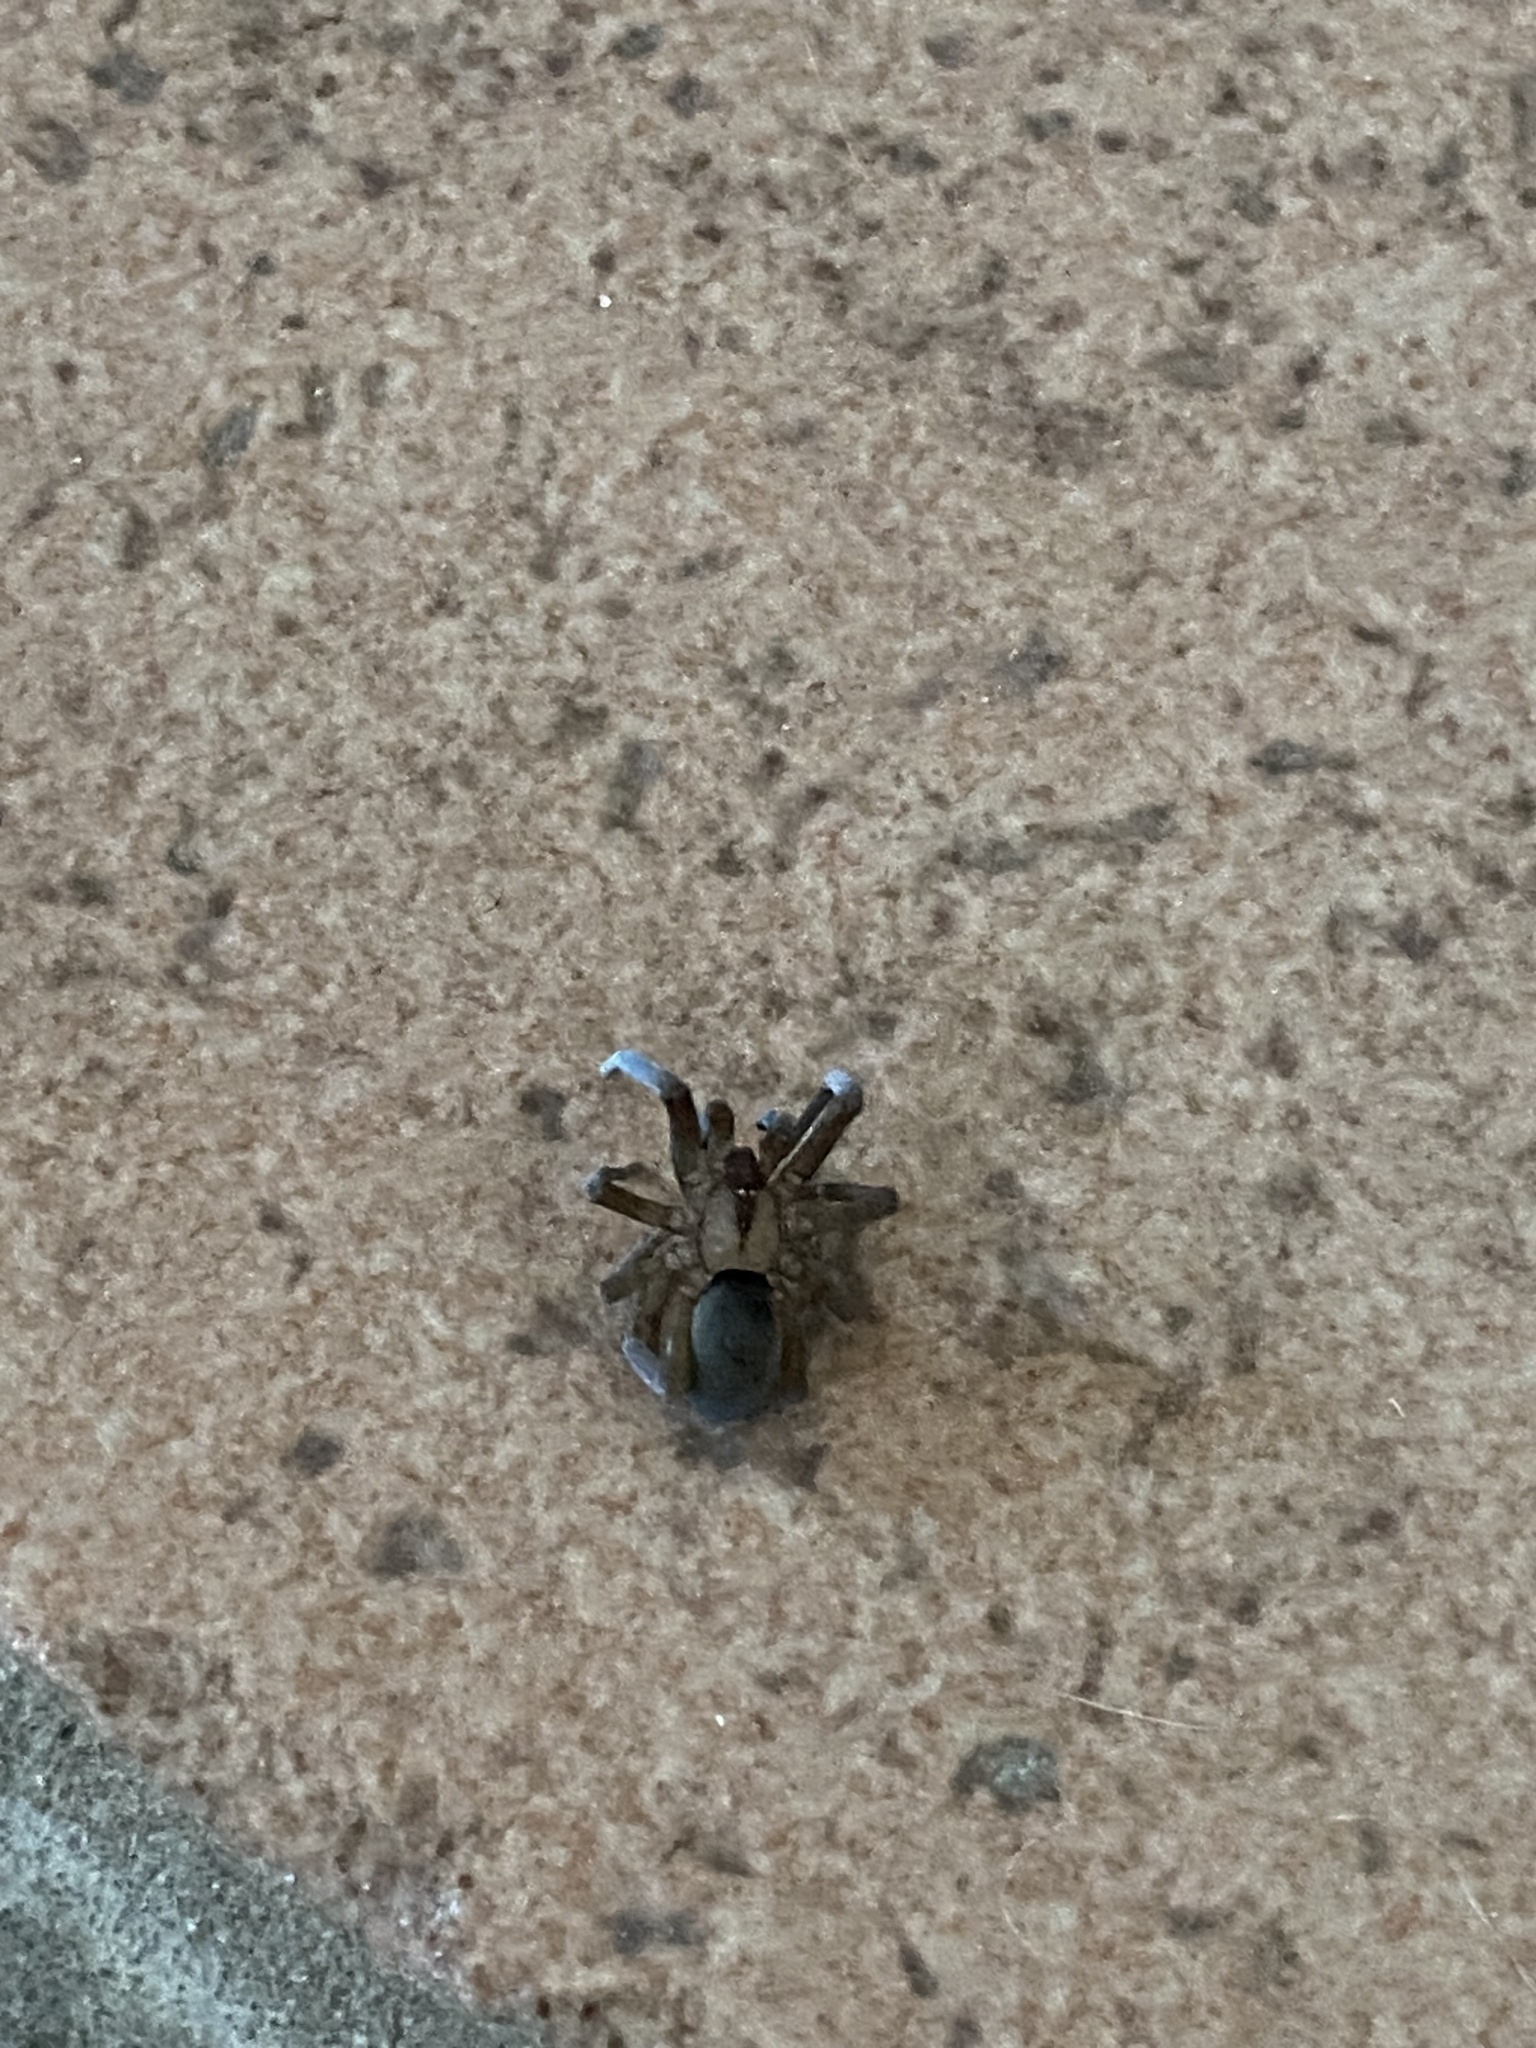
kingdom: Animalia
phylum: Arthropoda
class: Arachnida
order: Araneae
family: Filistatidae
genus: Filistata
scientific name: Filistata insidiatrix
